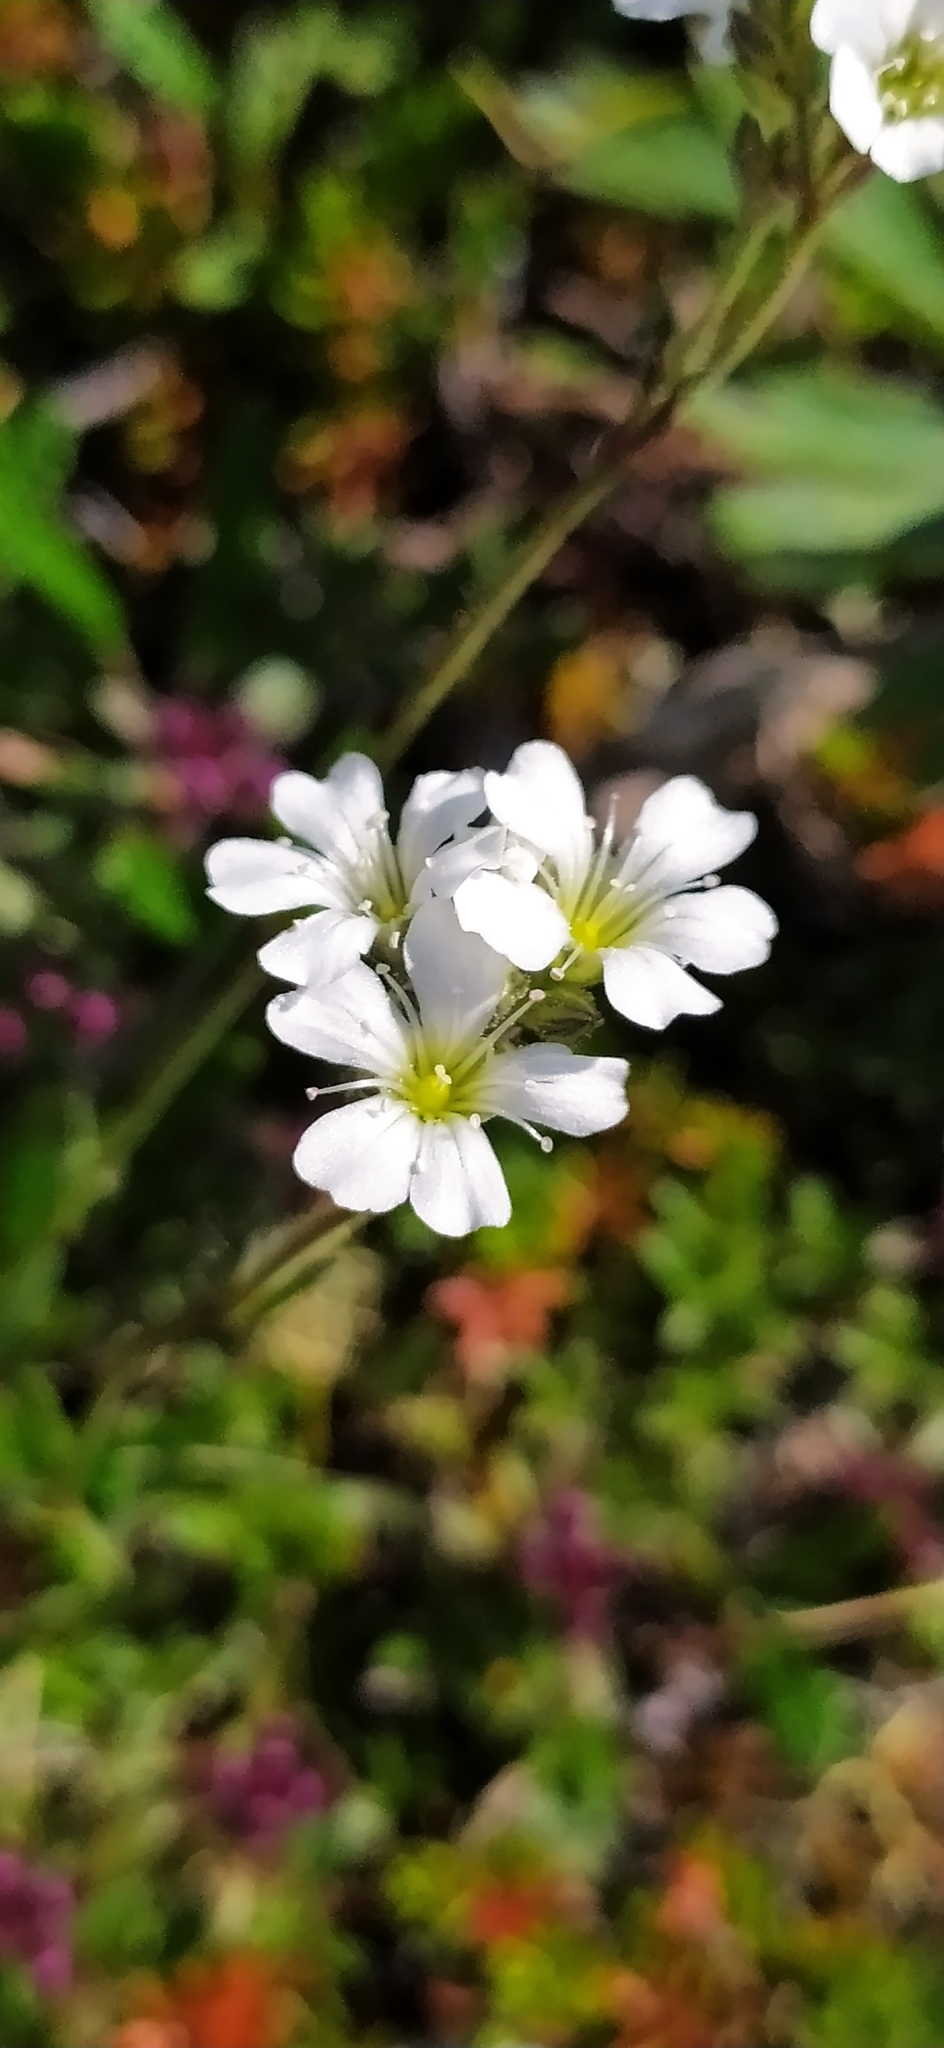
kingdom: Plantae
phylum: Tracheophyta
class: Magnoliopsida
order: Caryophyllales
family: Caryophyllaceae
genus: Gypsophila
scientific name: Gypsophila uralensis
